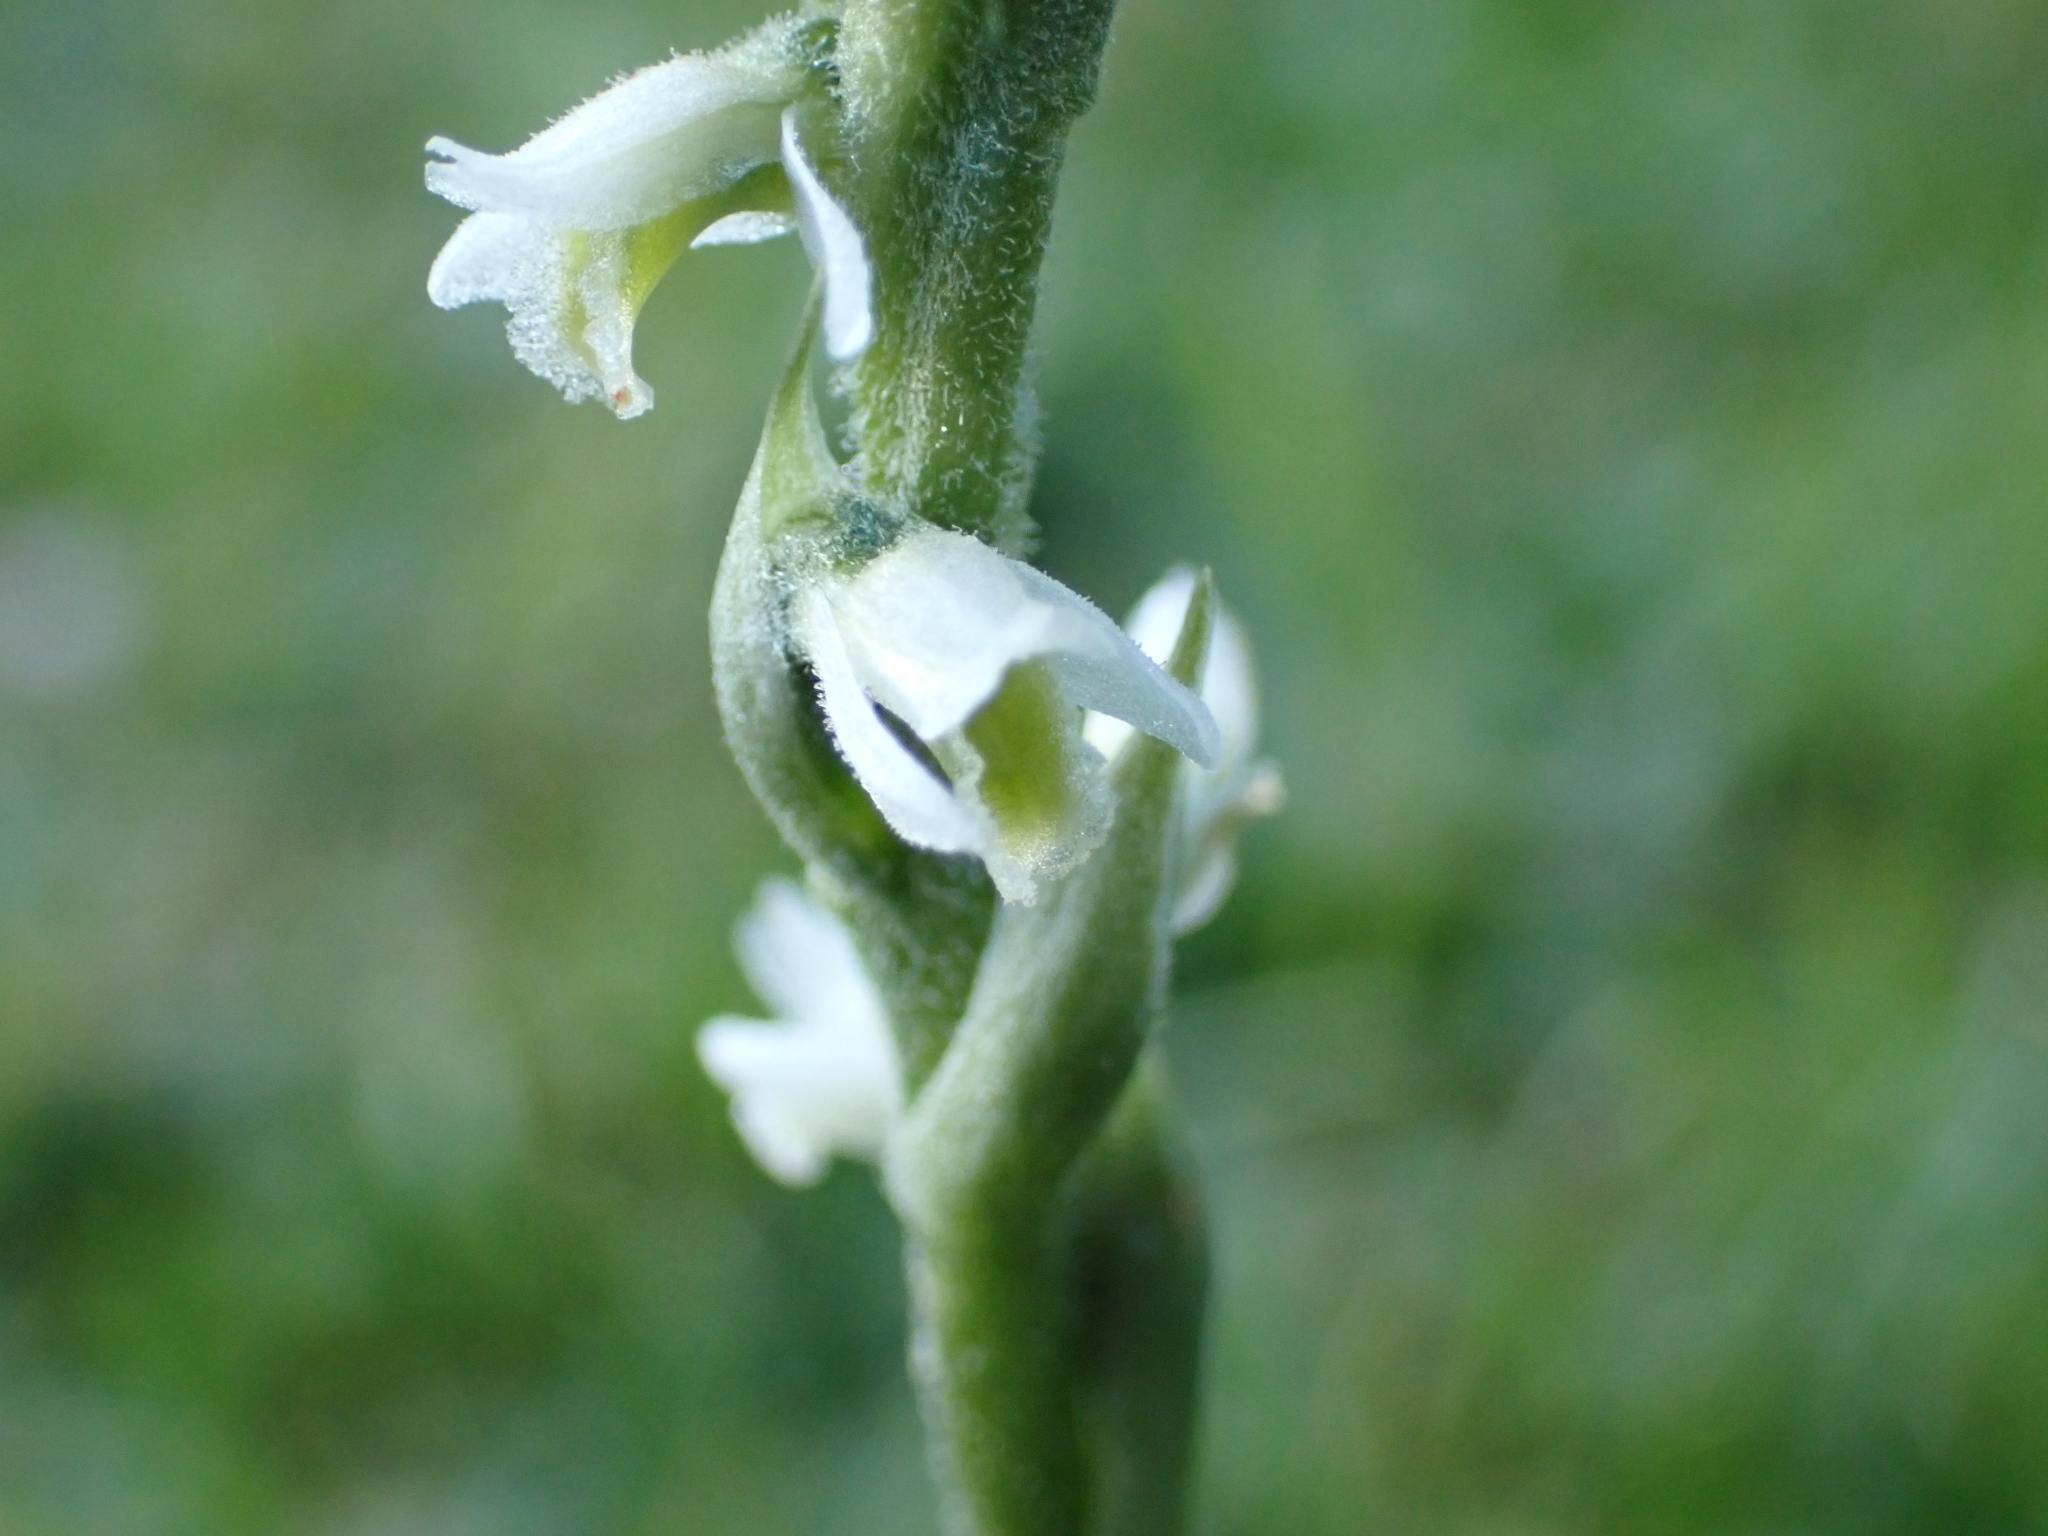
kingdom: Plantae
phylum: Tracheophyta
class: Liliopsida
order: Asparagales
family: Orchidaceae
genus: Spiranthes
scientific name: Spiranthes spiralis
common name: Autumn lady's-tresses
